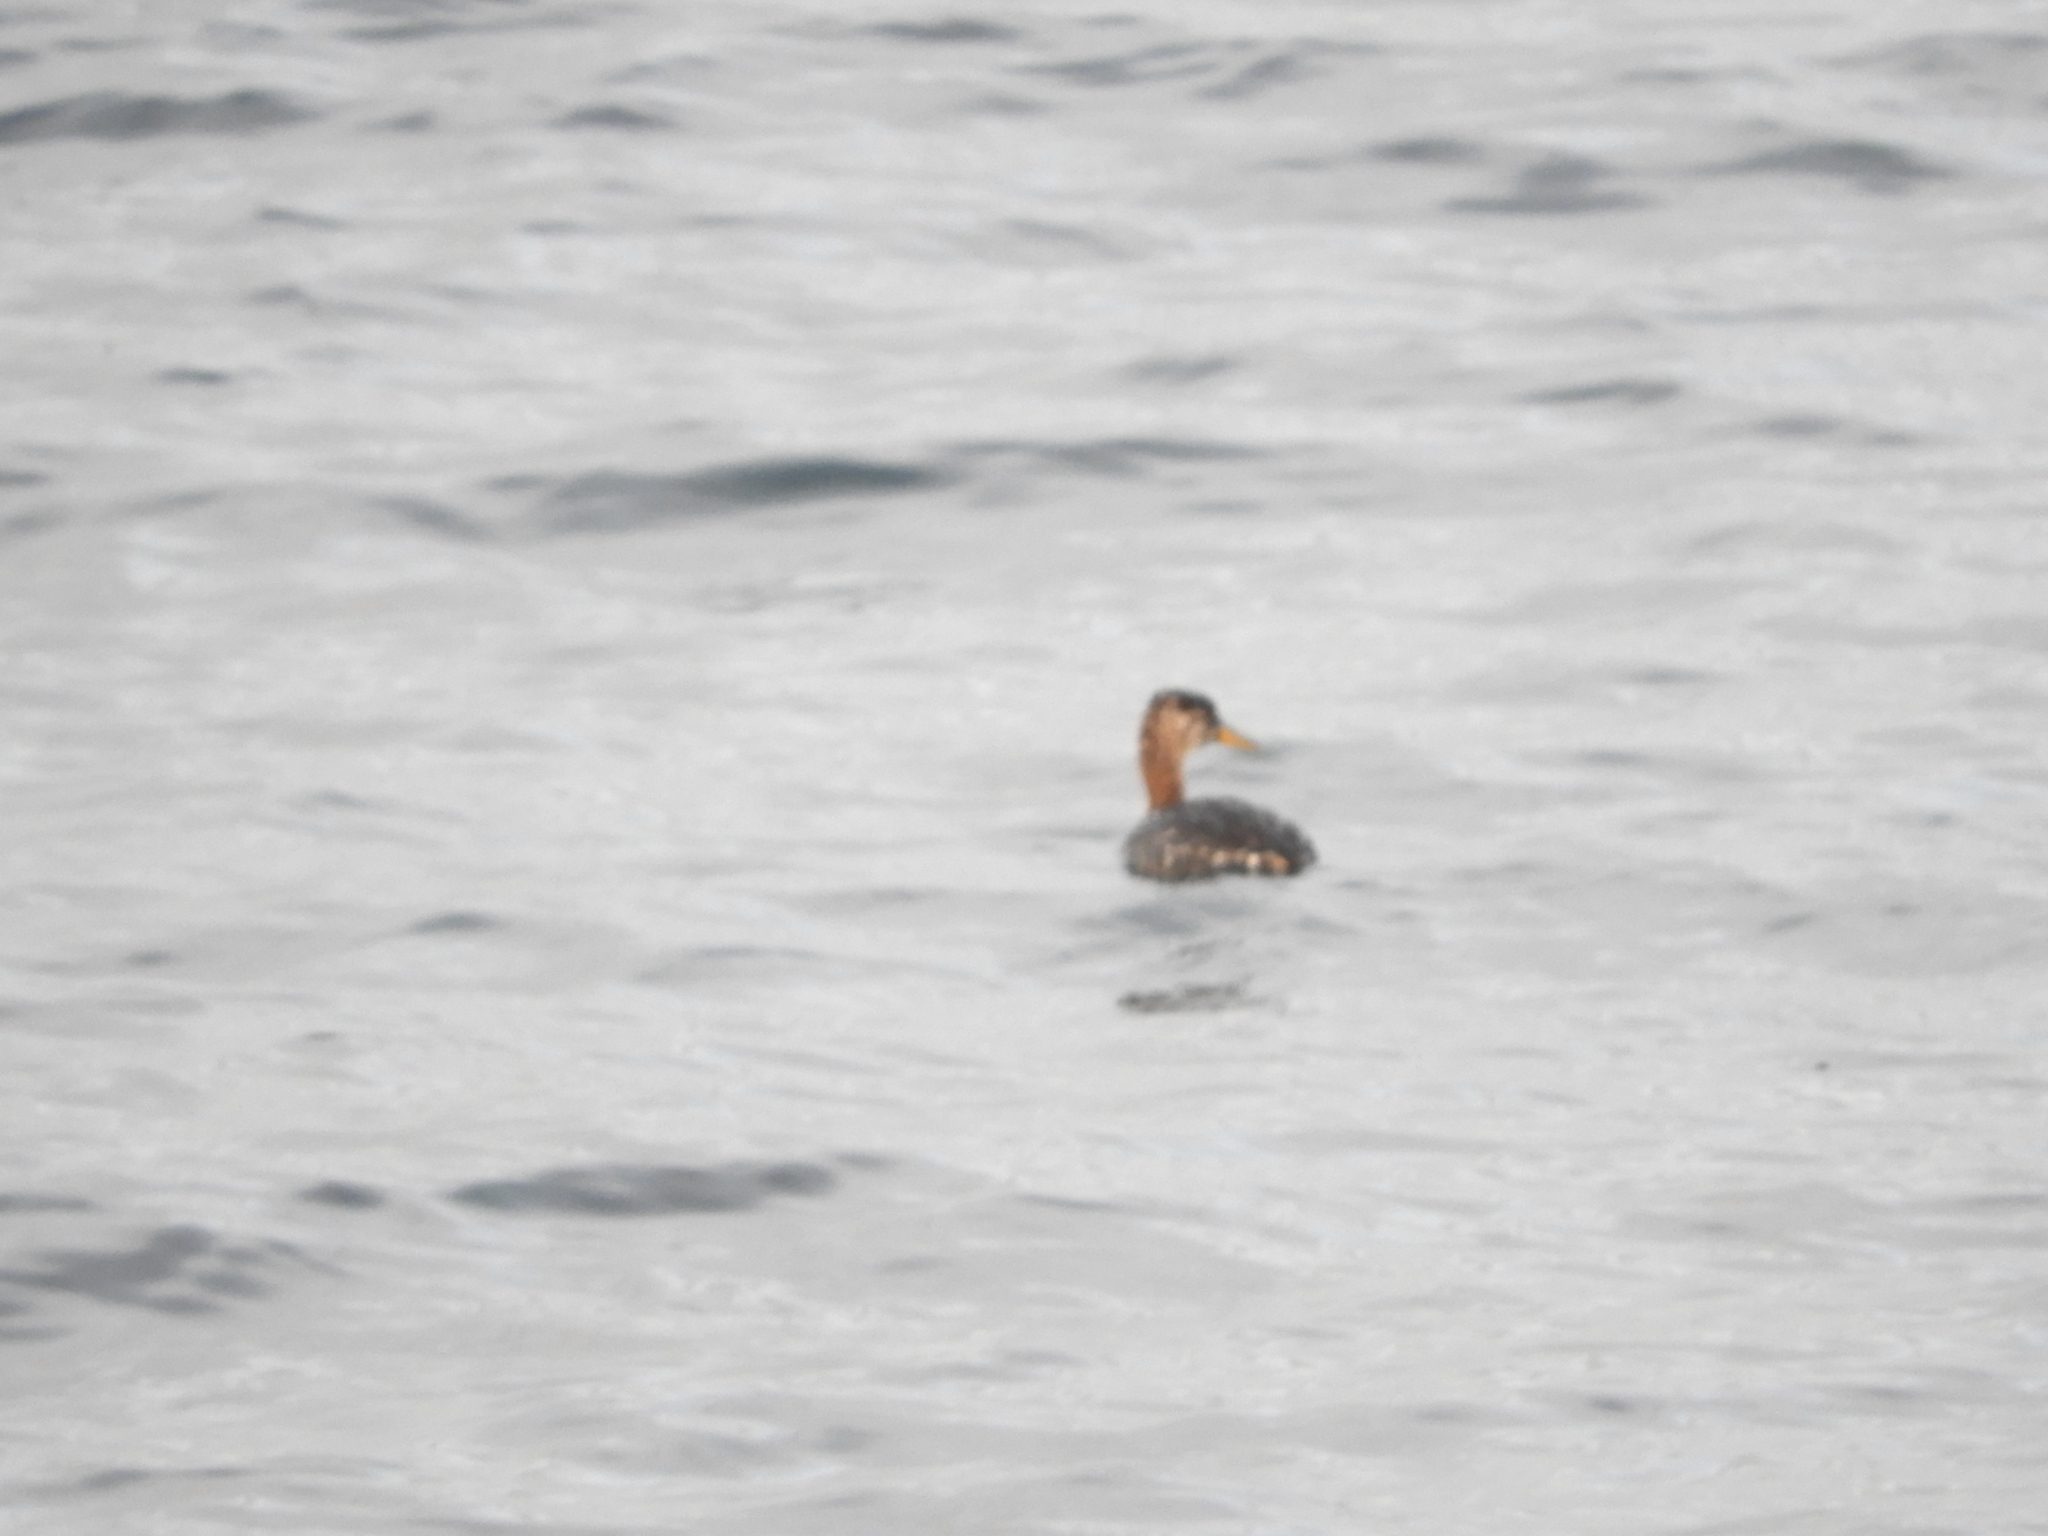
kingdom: Animalia
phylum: Chordata
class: Aves
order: Podicipediformes
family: Podicipedidae
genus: Podiceps
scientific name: Podiceps grisegena
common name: Red-necked grebe
